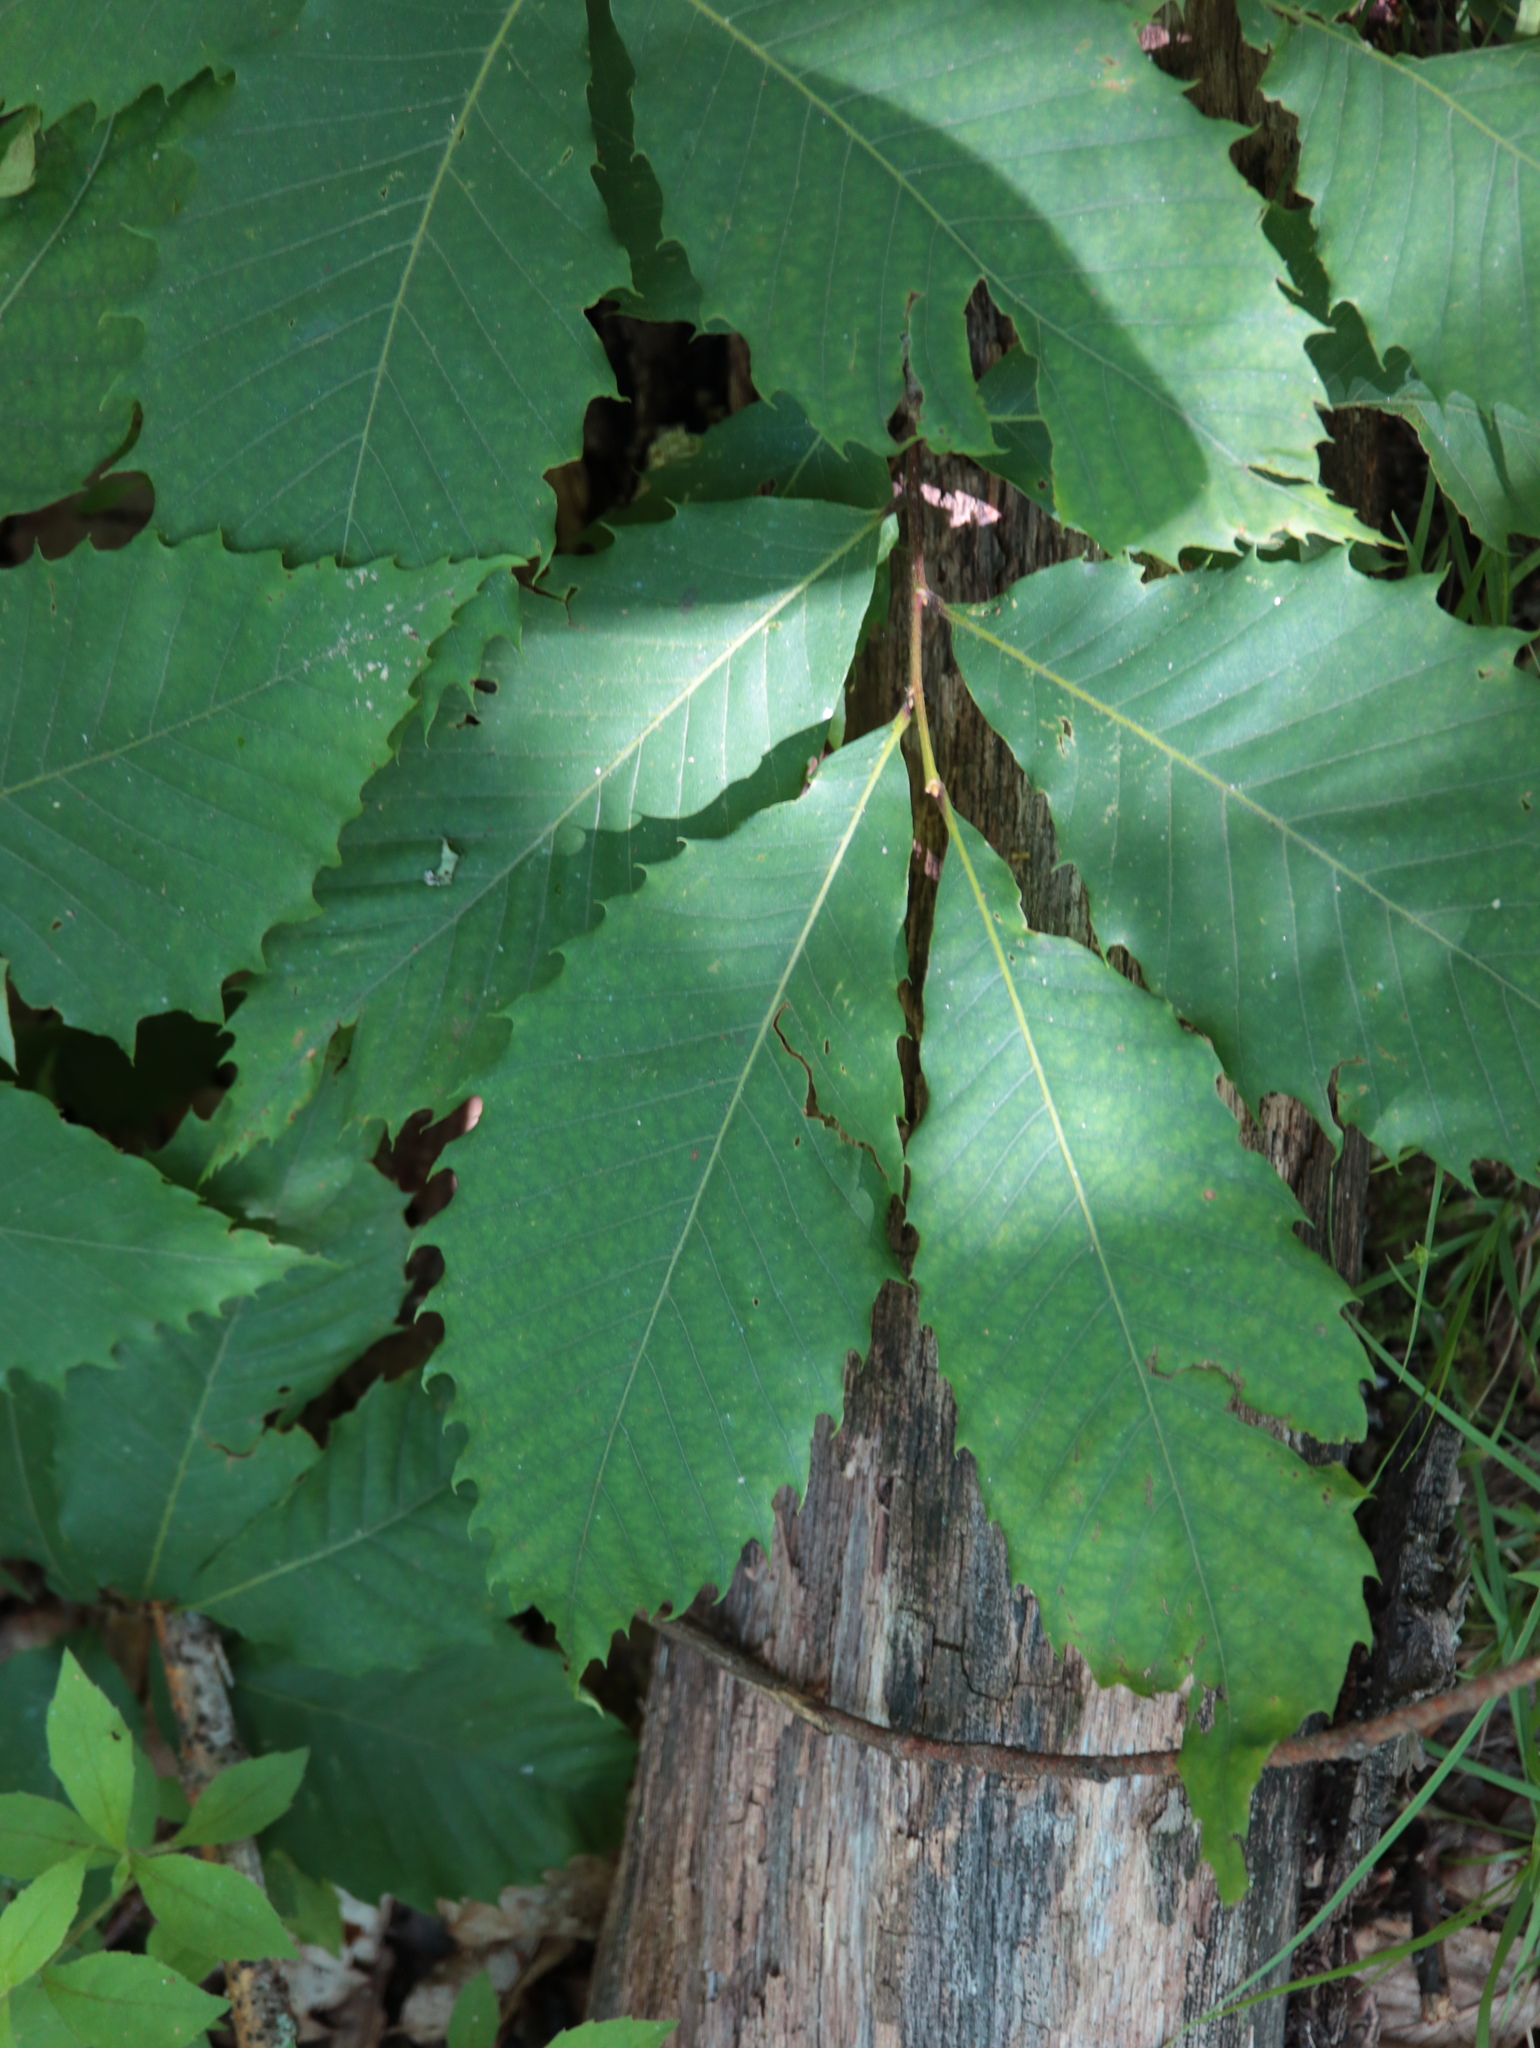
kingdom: Plantae
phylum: Tracheophyta
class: Magnoliopsida
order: Fagales
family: Fagaceae
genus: Castanea
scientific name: Castanea dentata
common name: American chestnut
